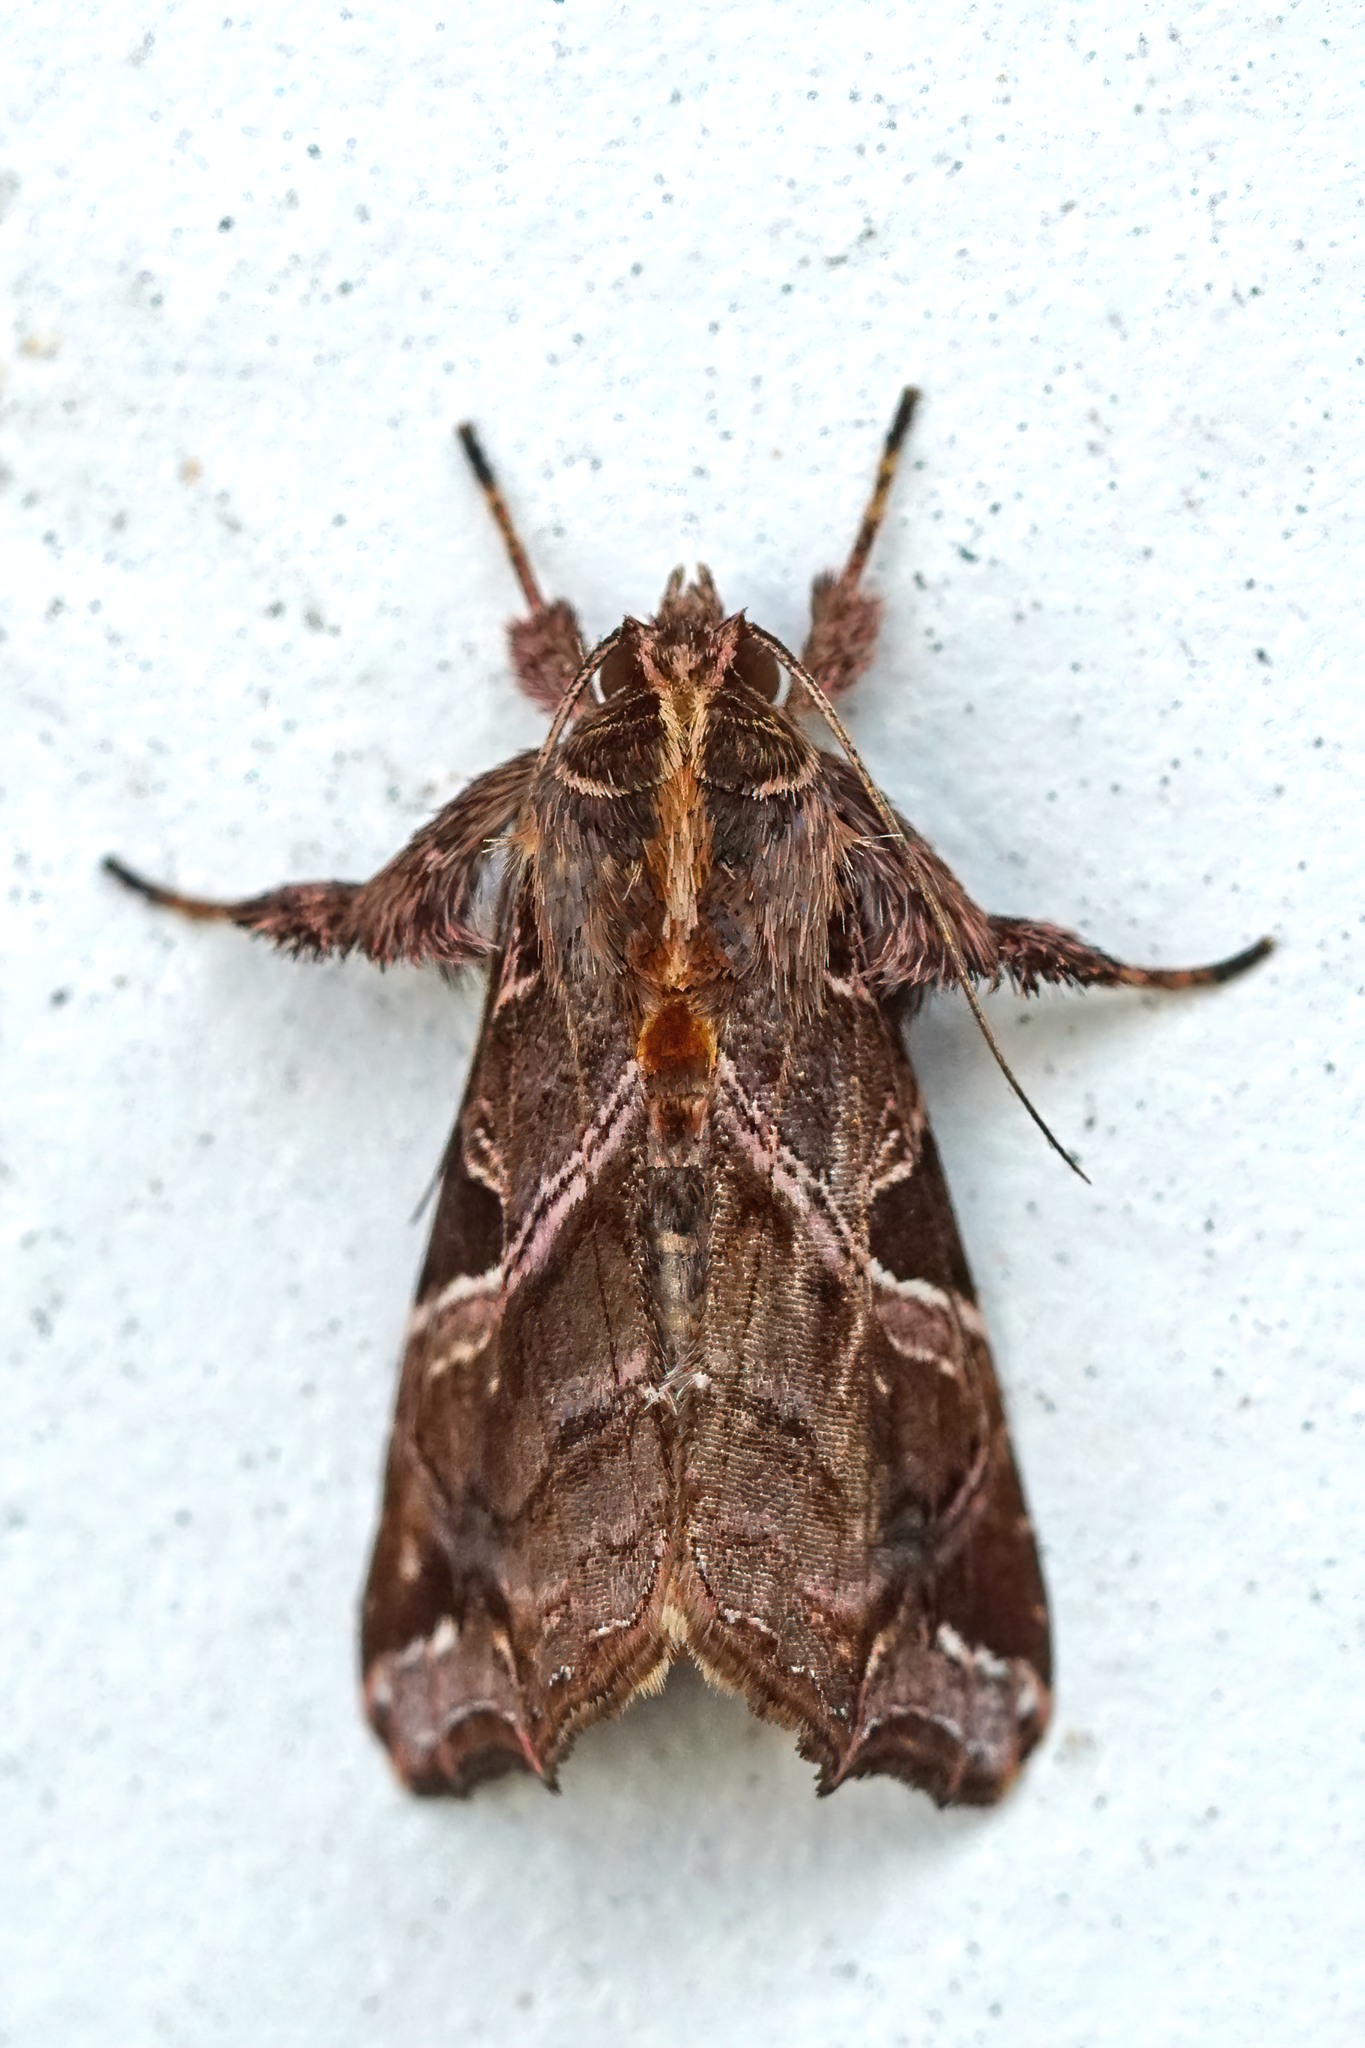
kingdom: Animalia
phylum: Arthropoda
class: Insecta
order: Lepidoptera
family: Noctuidae
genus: Callopistria
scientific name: Callopistria floridensis
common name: Florida fern moth
